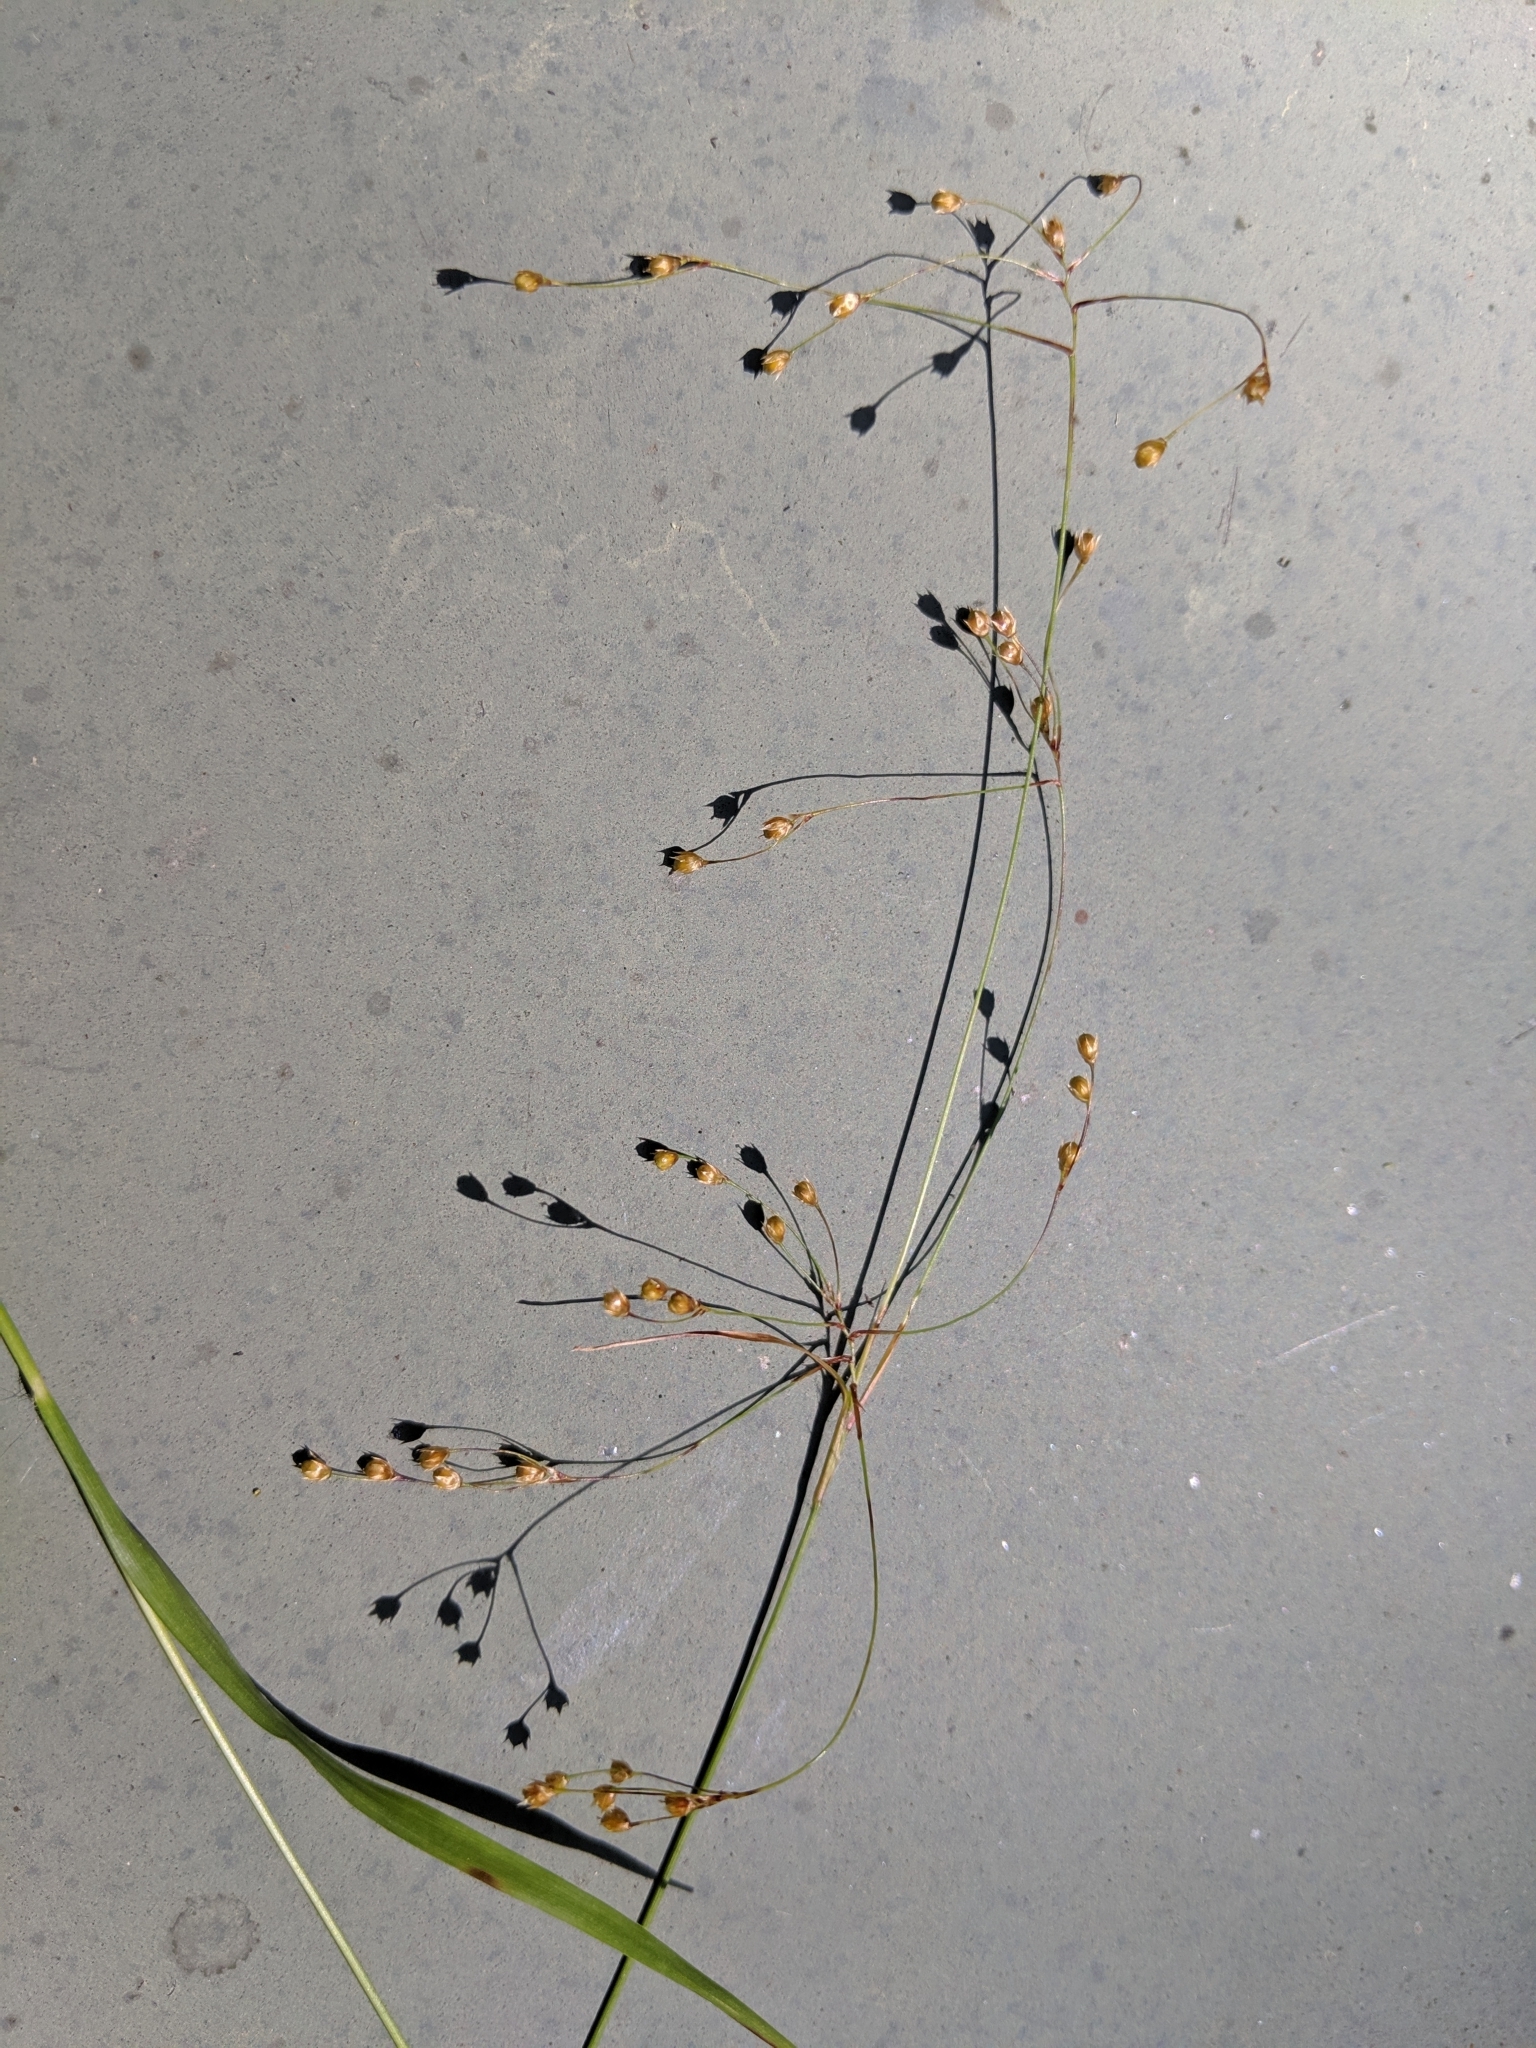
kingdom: Plantae
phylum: Tracheophyta
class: Liliopsida
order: Poales
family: Juncaceae
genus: Luzula
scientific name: Luzula parviflora
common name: Millet woodrush
